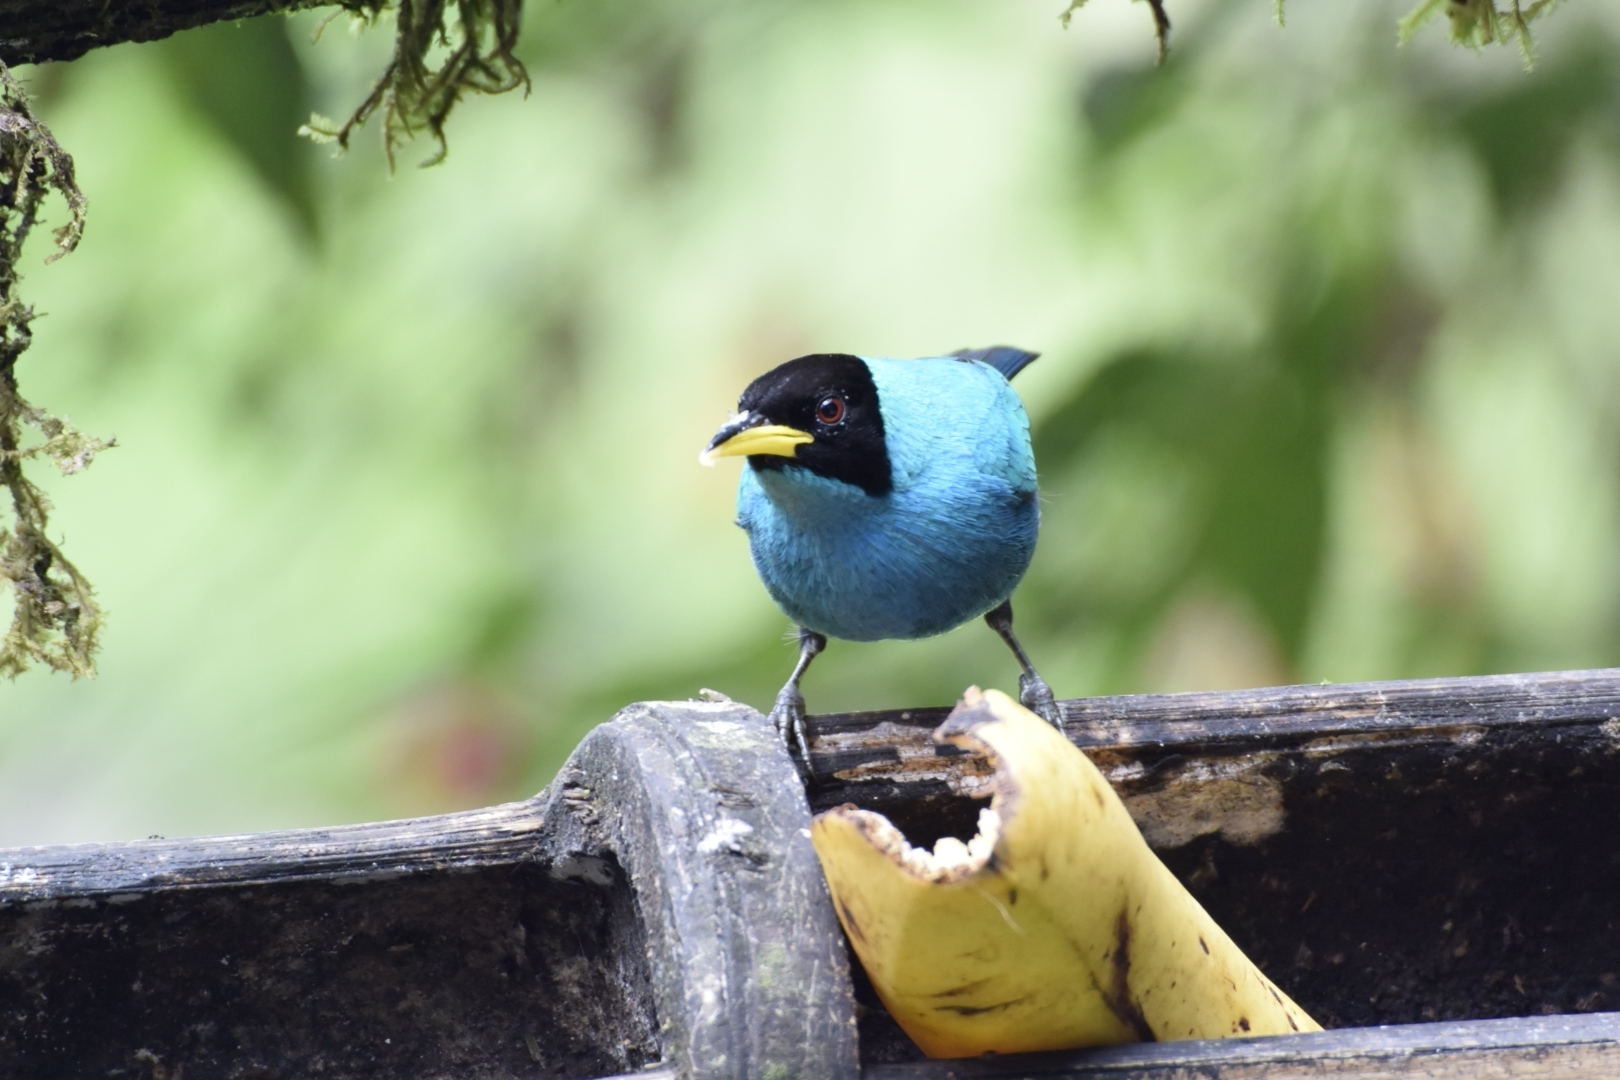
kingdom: Animalia
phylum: Chordata
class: Aves
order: Passeriformes
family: Thraupidae
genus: Chlorophanes
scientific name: Chlorophanes spiza
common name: Green honeycreeper
